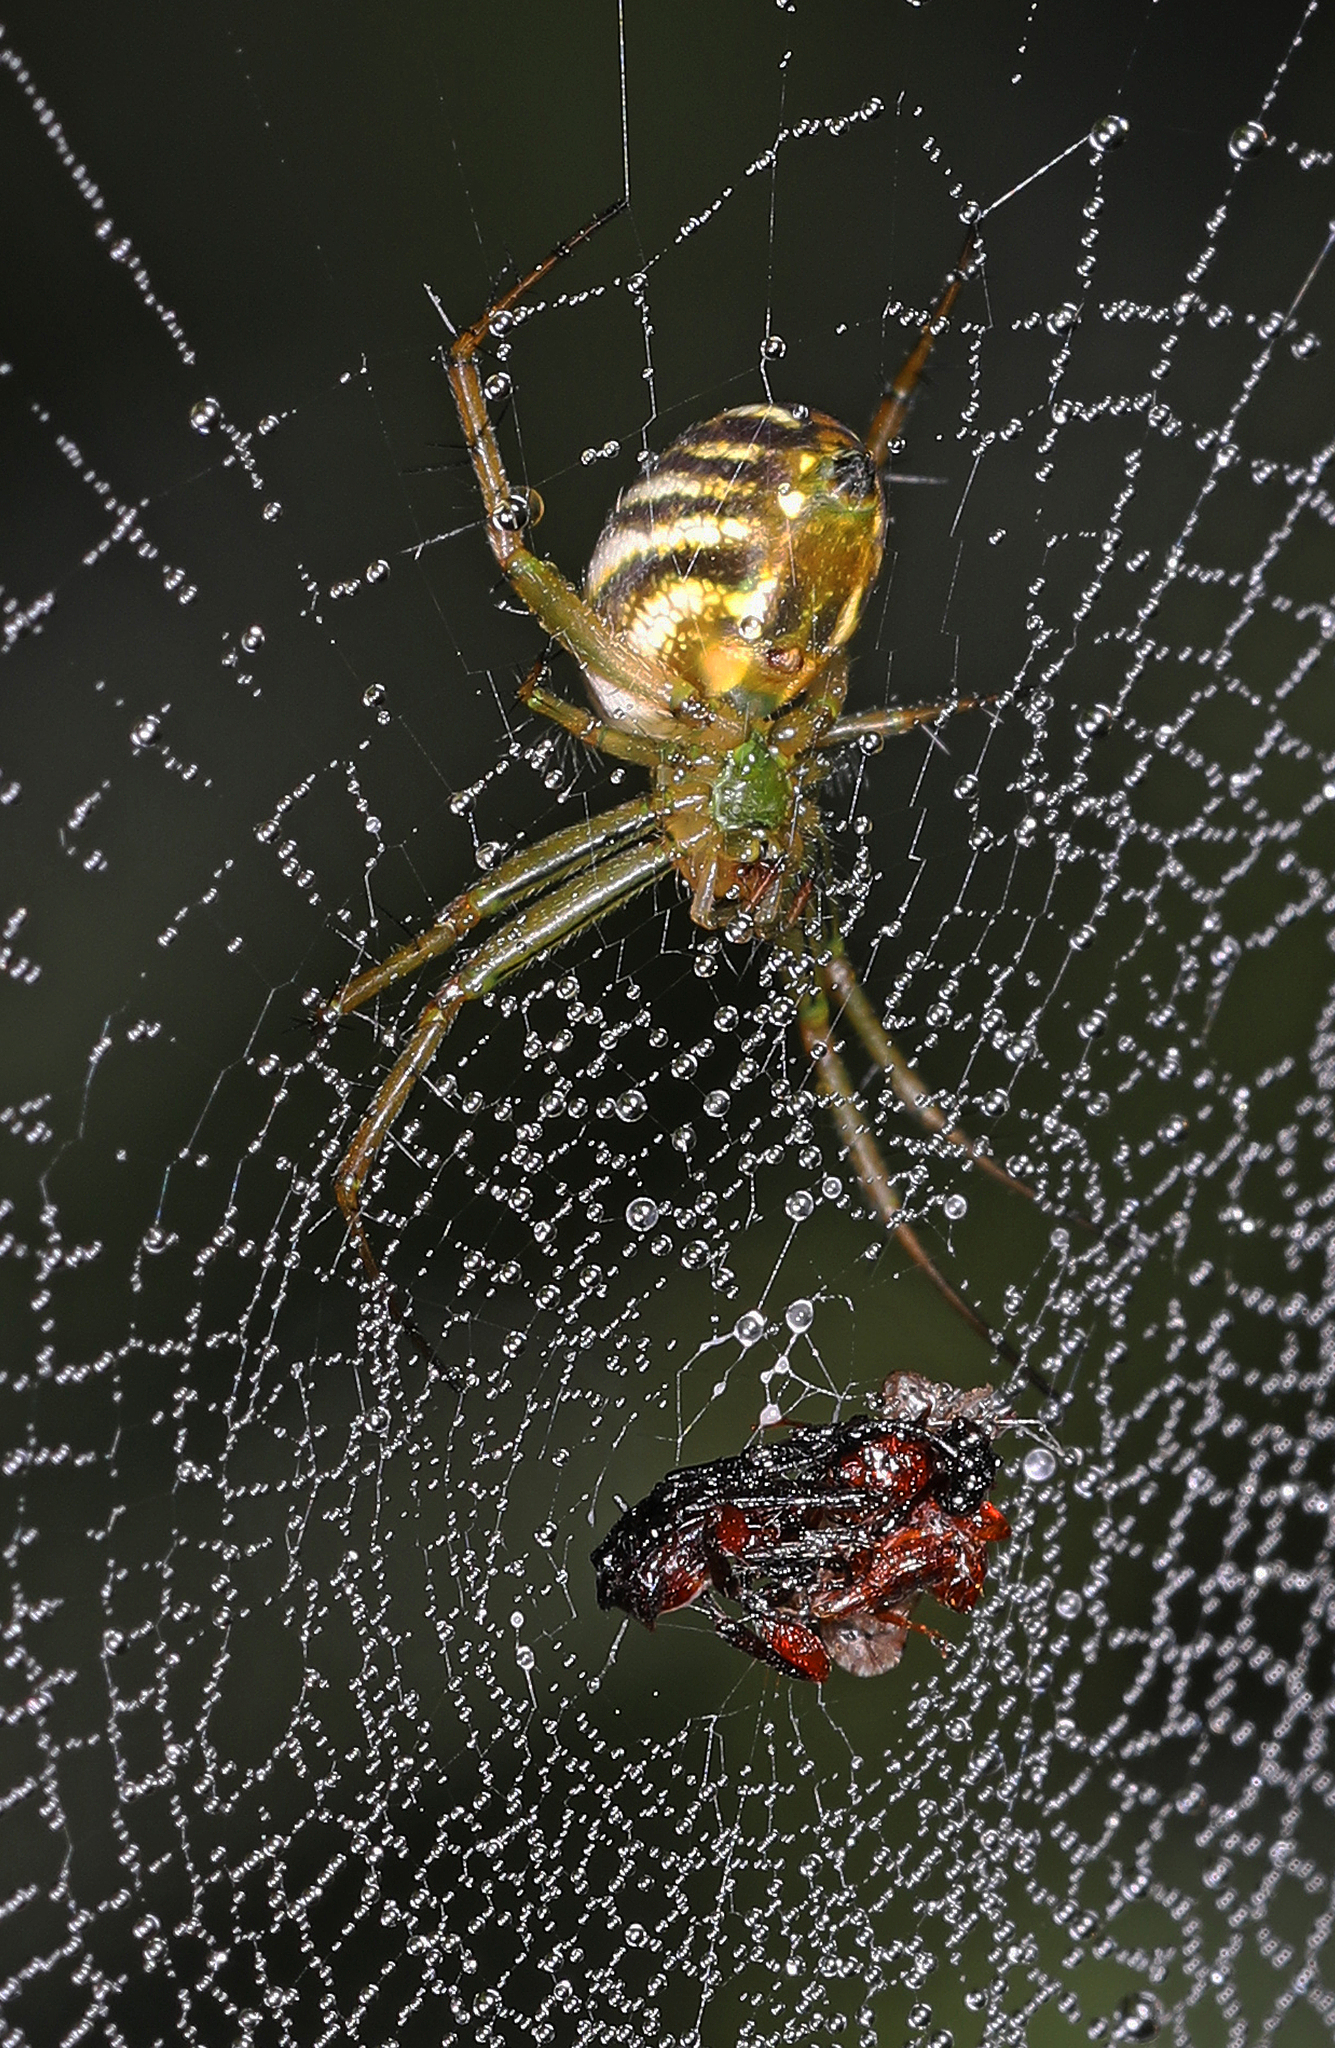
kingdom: Animalia
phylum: Arthropoda
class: Arachnida
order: Araneae
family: Araneidae
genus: Mangora
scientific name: Mangora gibberosa
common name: Lined orbweaver
